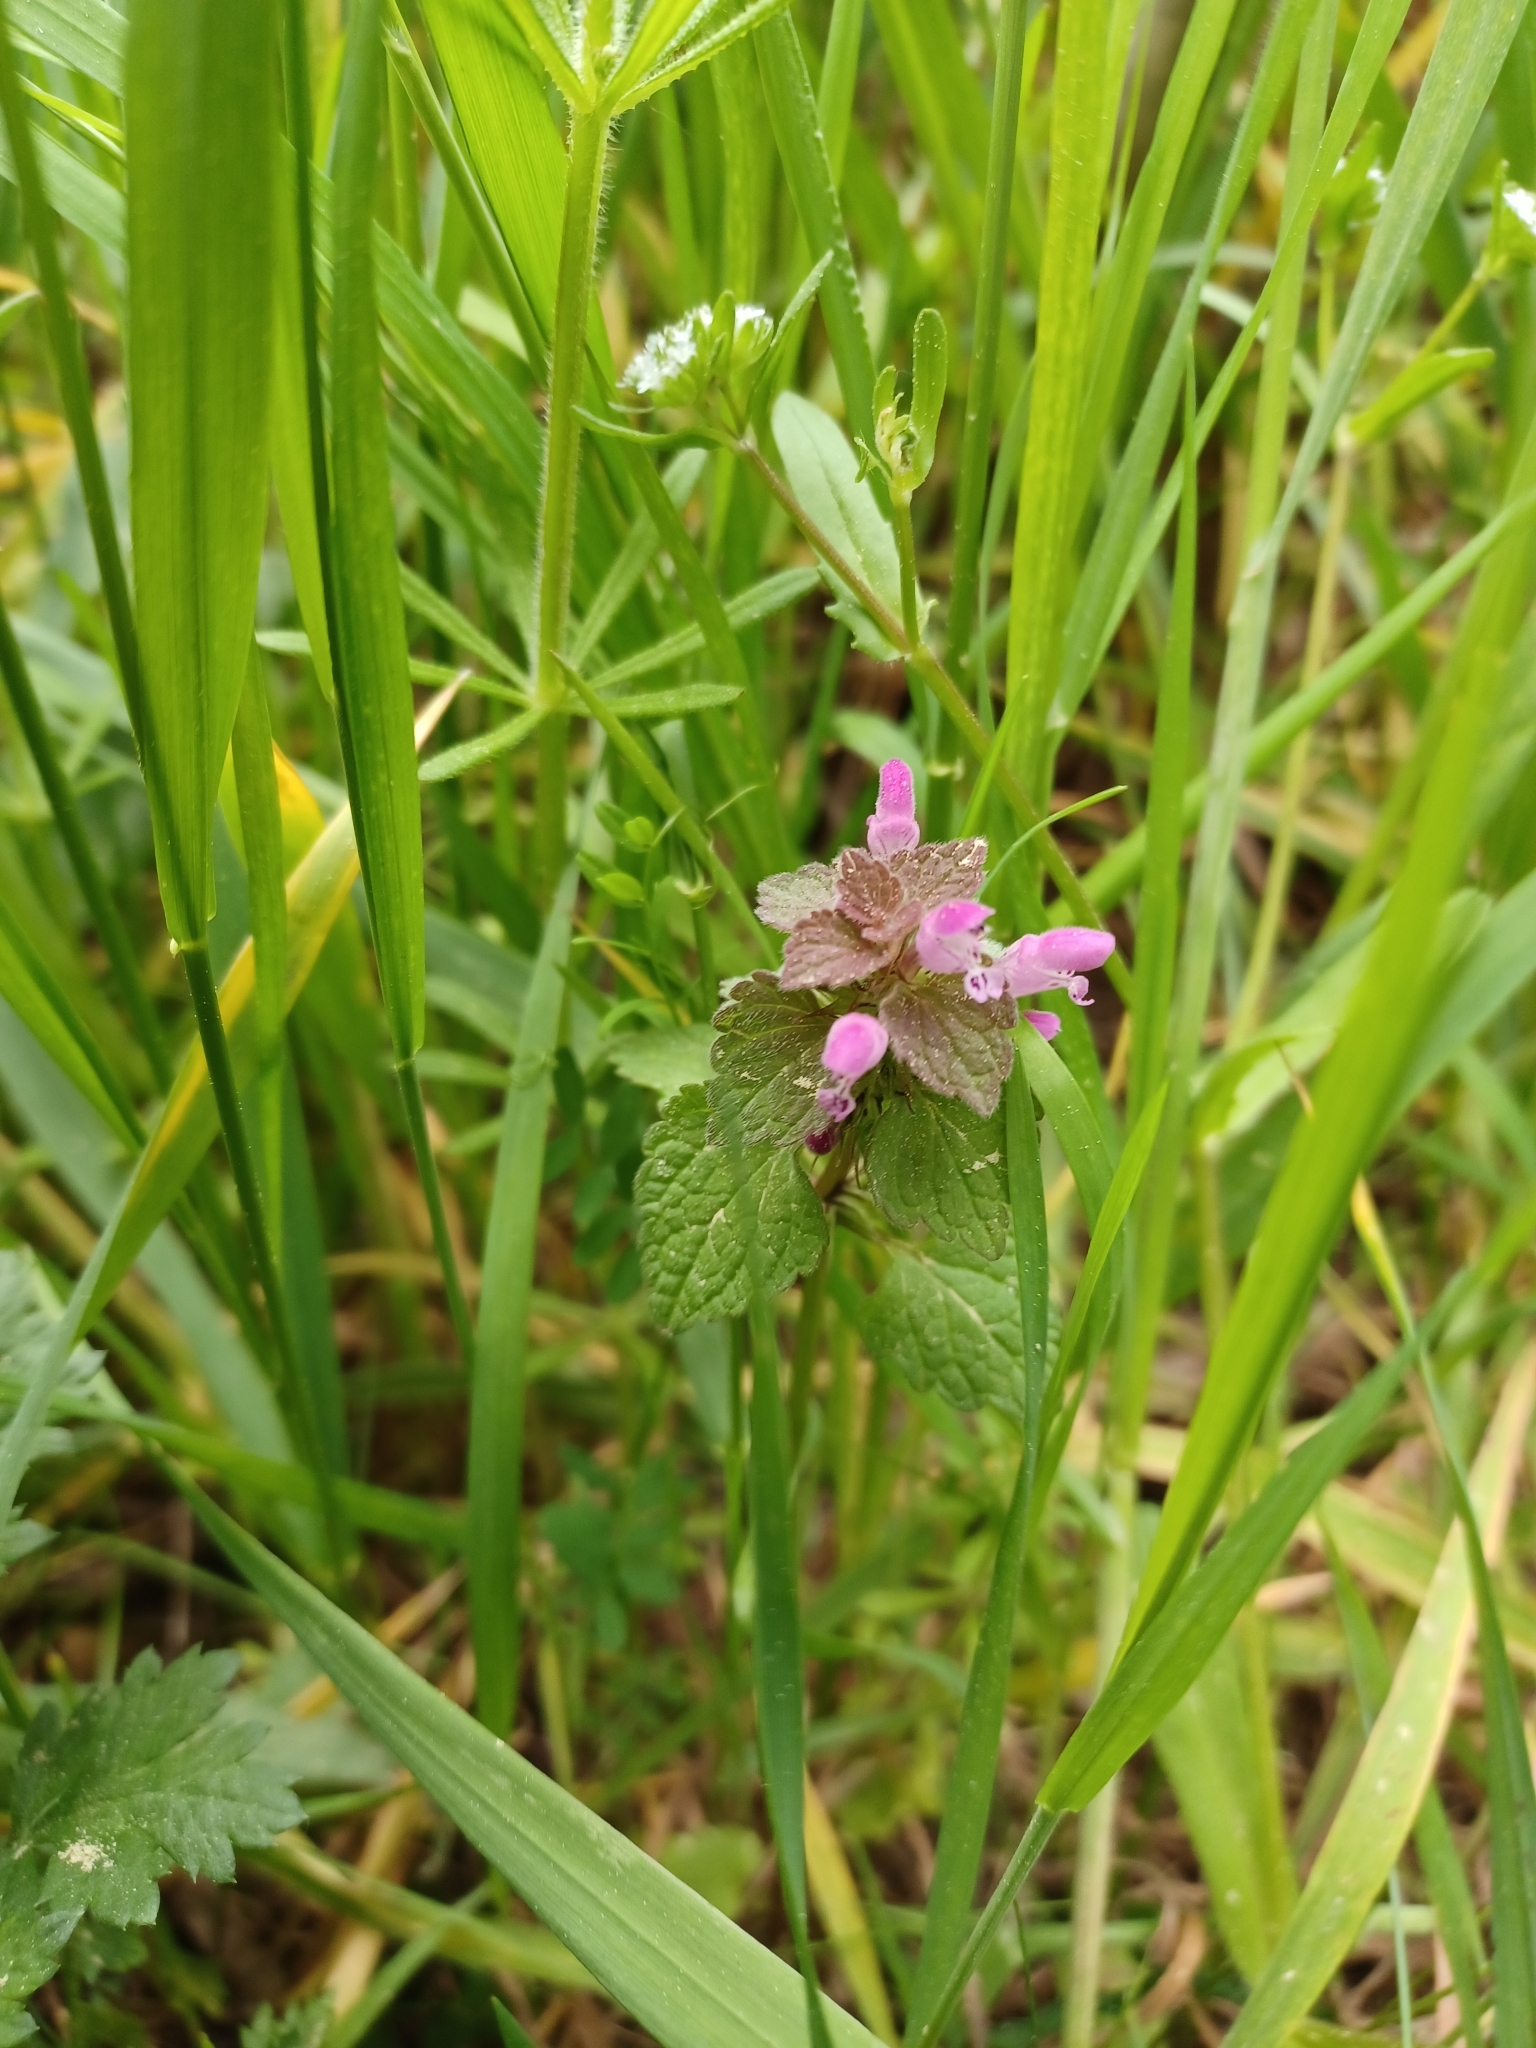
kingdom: Plantae
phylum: Tracheophyta
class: Magnoliopsida
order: Lamiales
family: Lamiaceae
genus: Lamium
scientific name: Lamium purpureum
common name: Red dead-nettle
